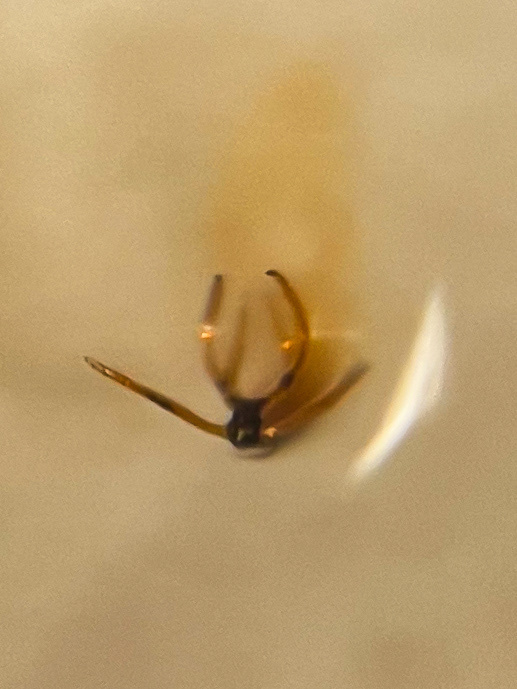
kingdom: Animalia
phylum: Arthropoda
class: Insecta
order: Hemiptera
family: Cicadellidae
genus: Edwardsiana
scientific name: Edwardsiana ishidai
